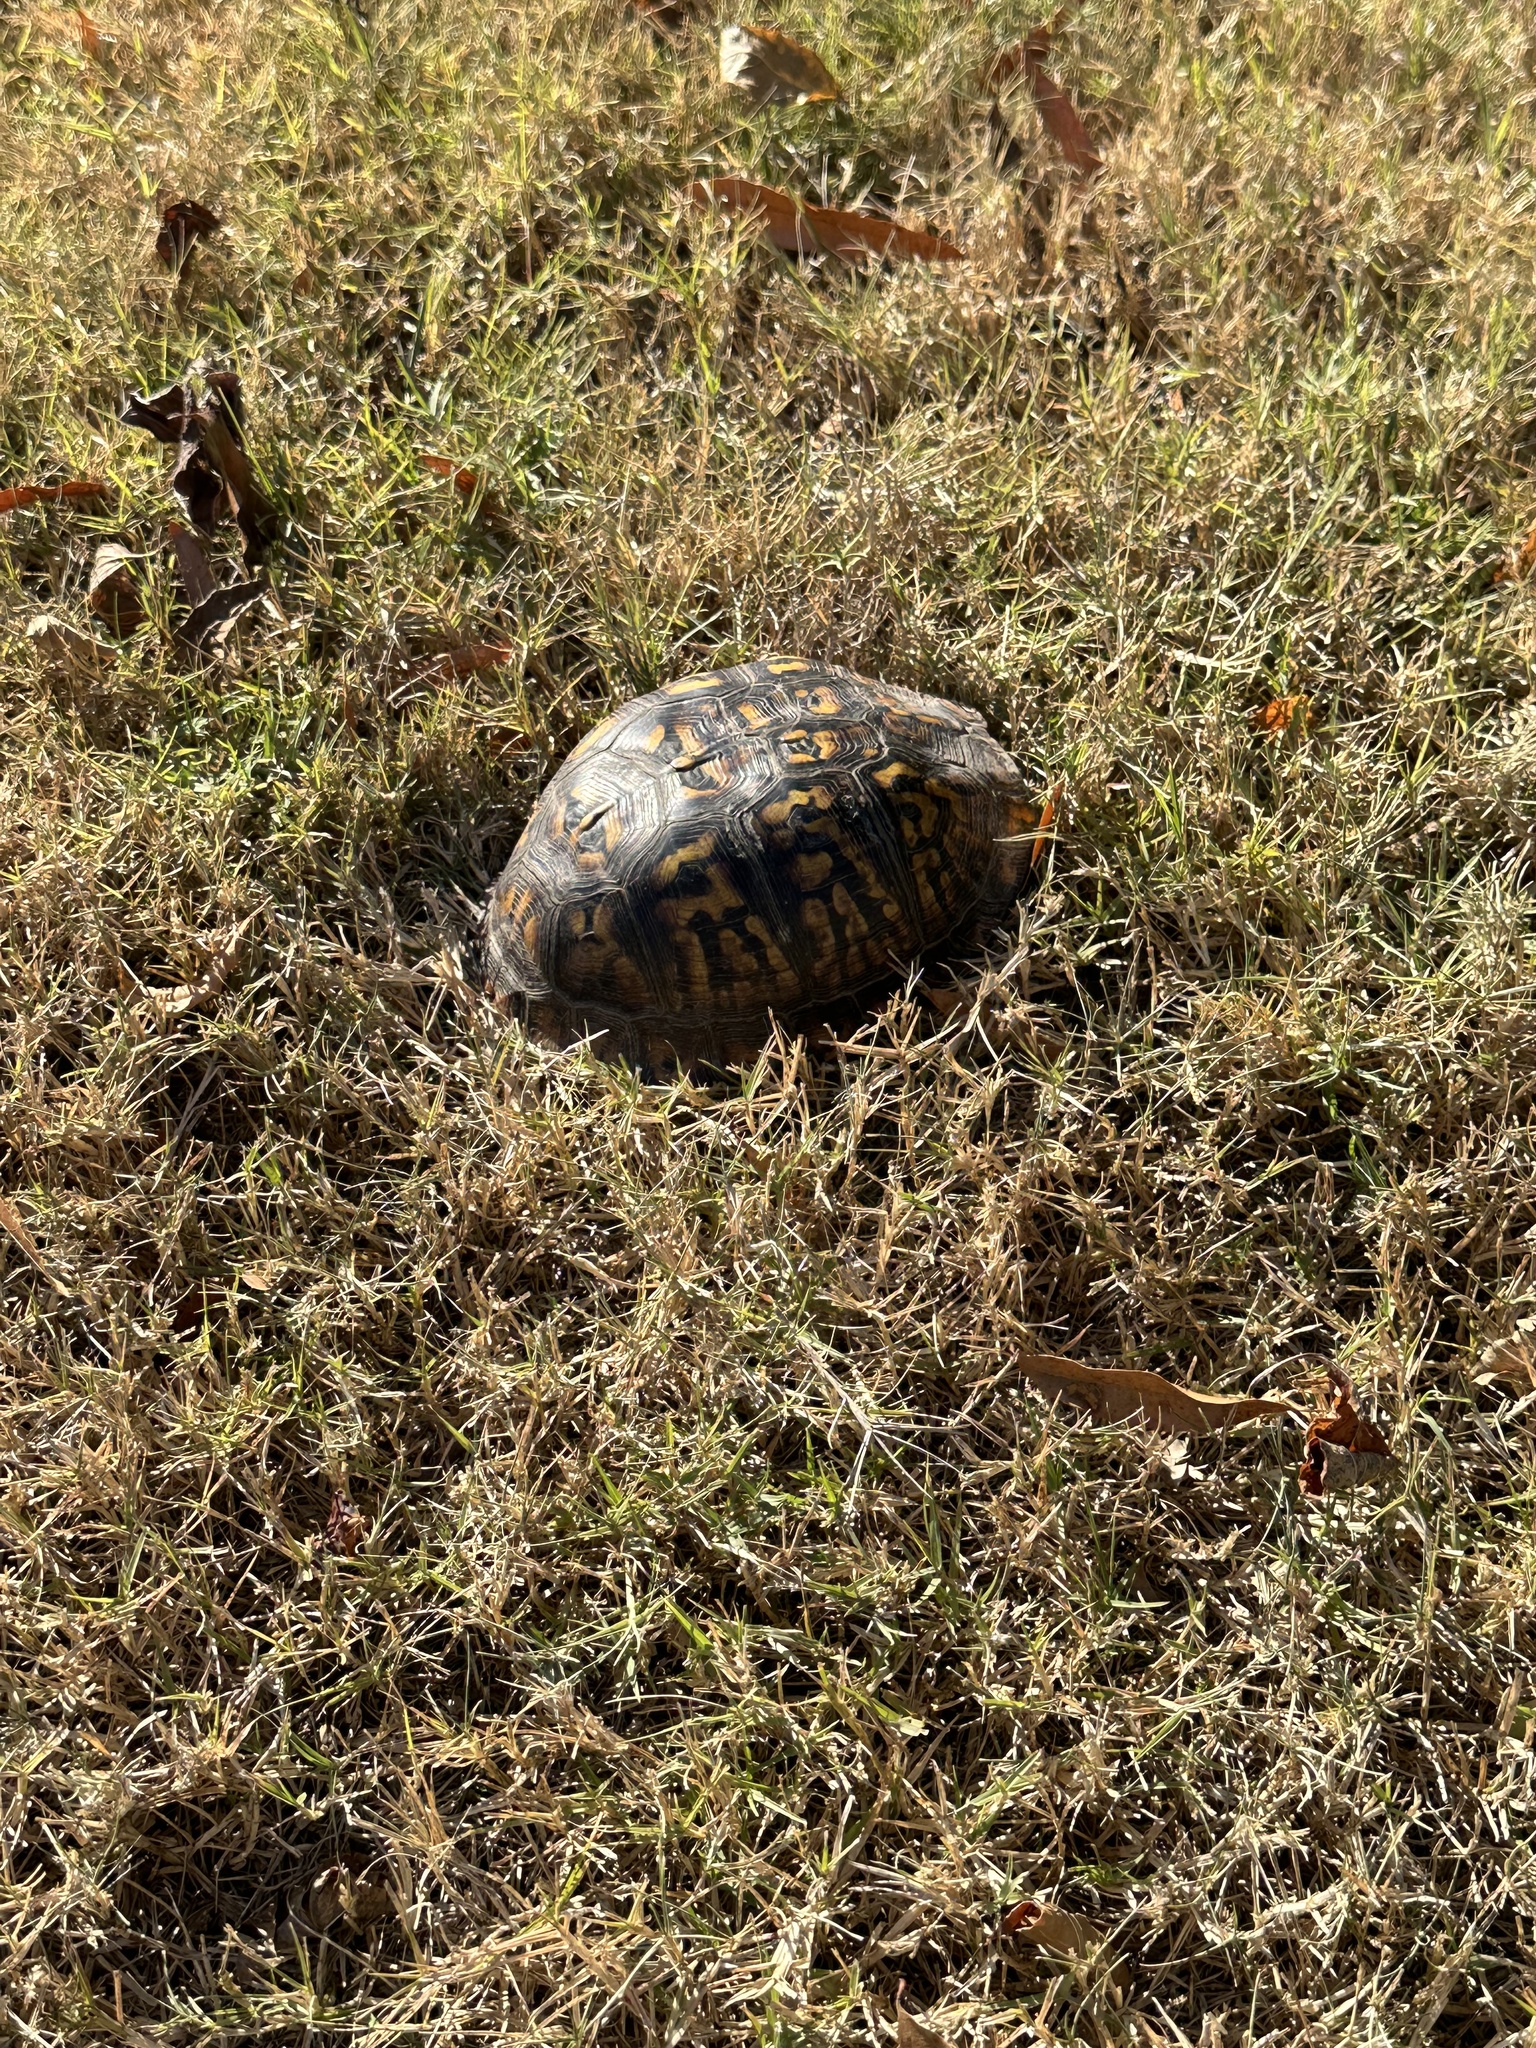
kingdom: Animalia
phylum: Chordata
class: Testudines
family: Emydidae
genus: Terrapene
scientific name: Terrapene carolina
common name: Common box turtle
